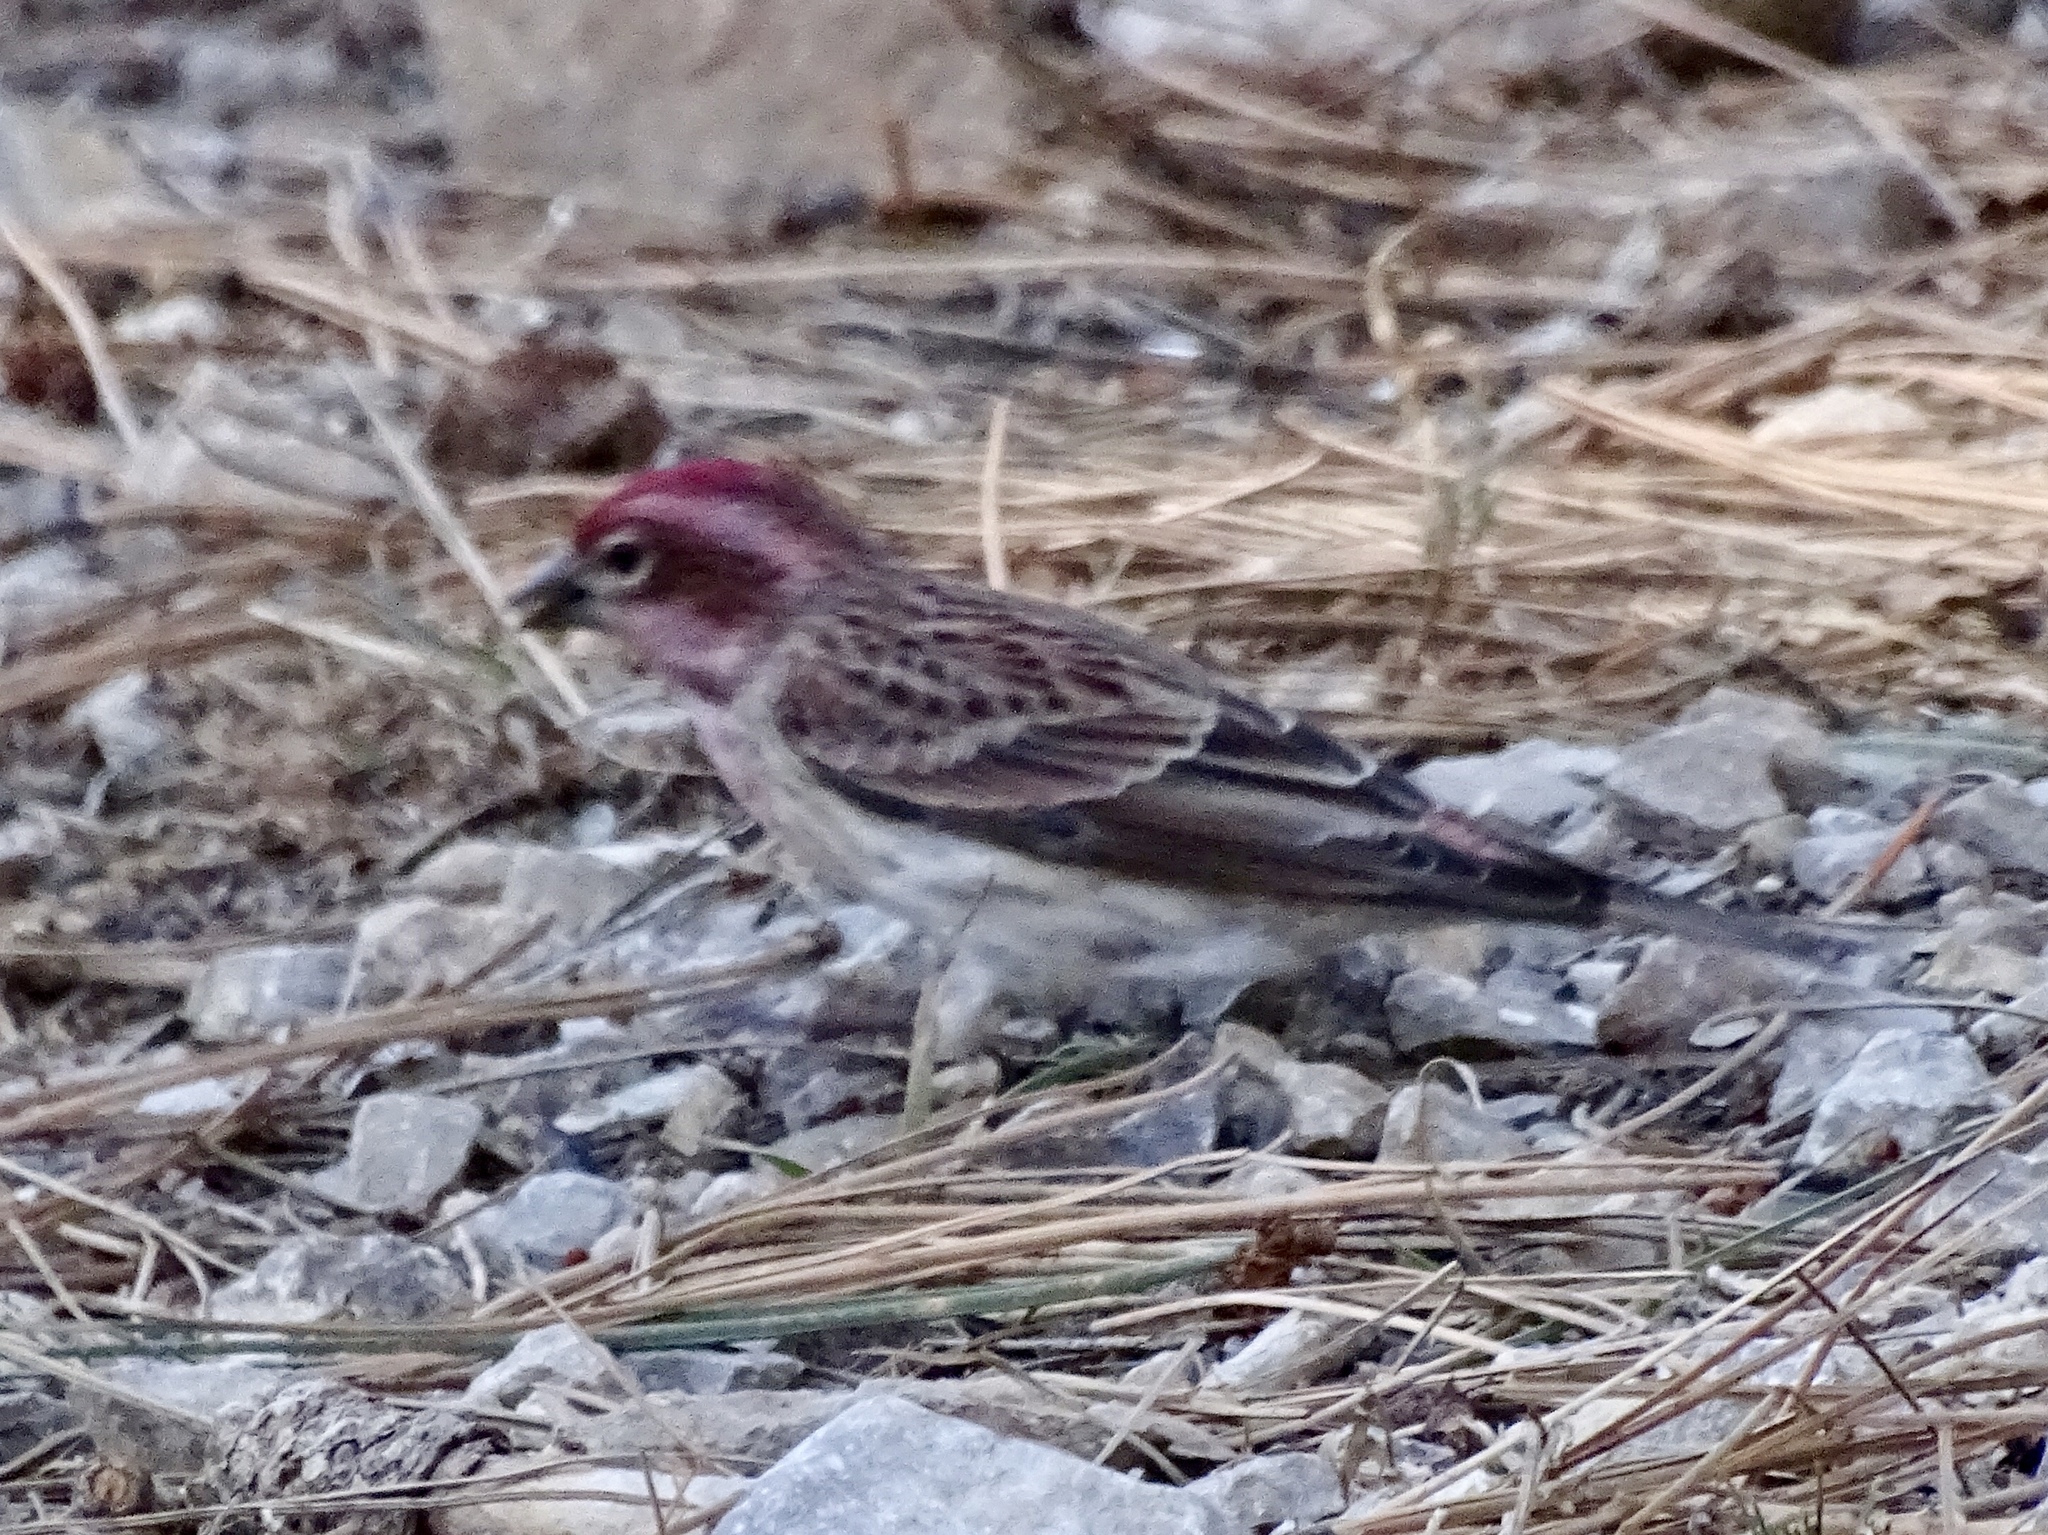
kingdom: Animalia
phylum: Chordata
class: Aves
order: Passeriformes
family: Fringillidae
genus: Haemorhous
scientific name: Haemorhous cassinii
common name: Cassin's finch
